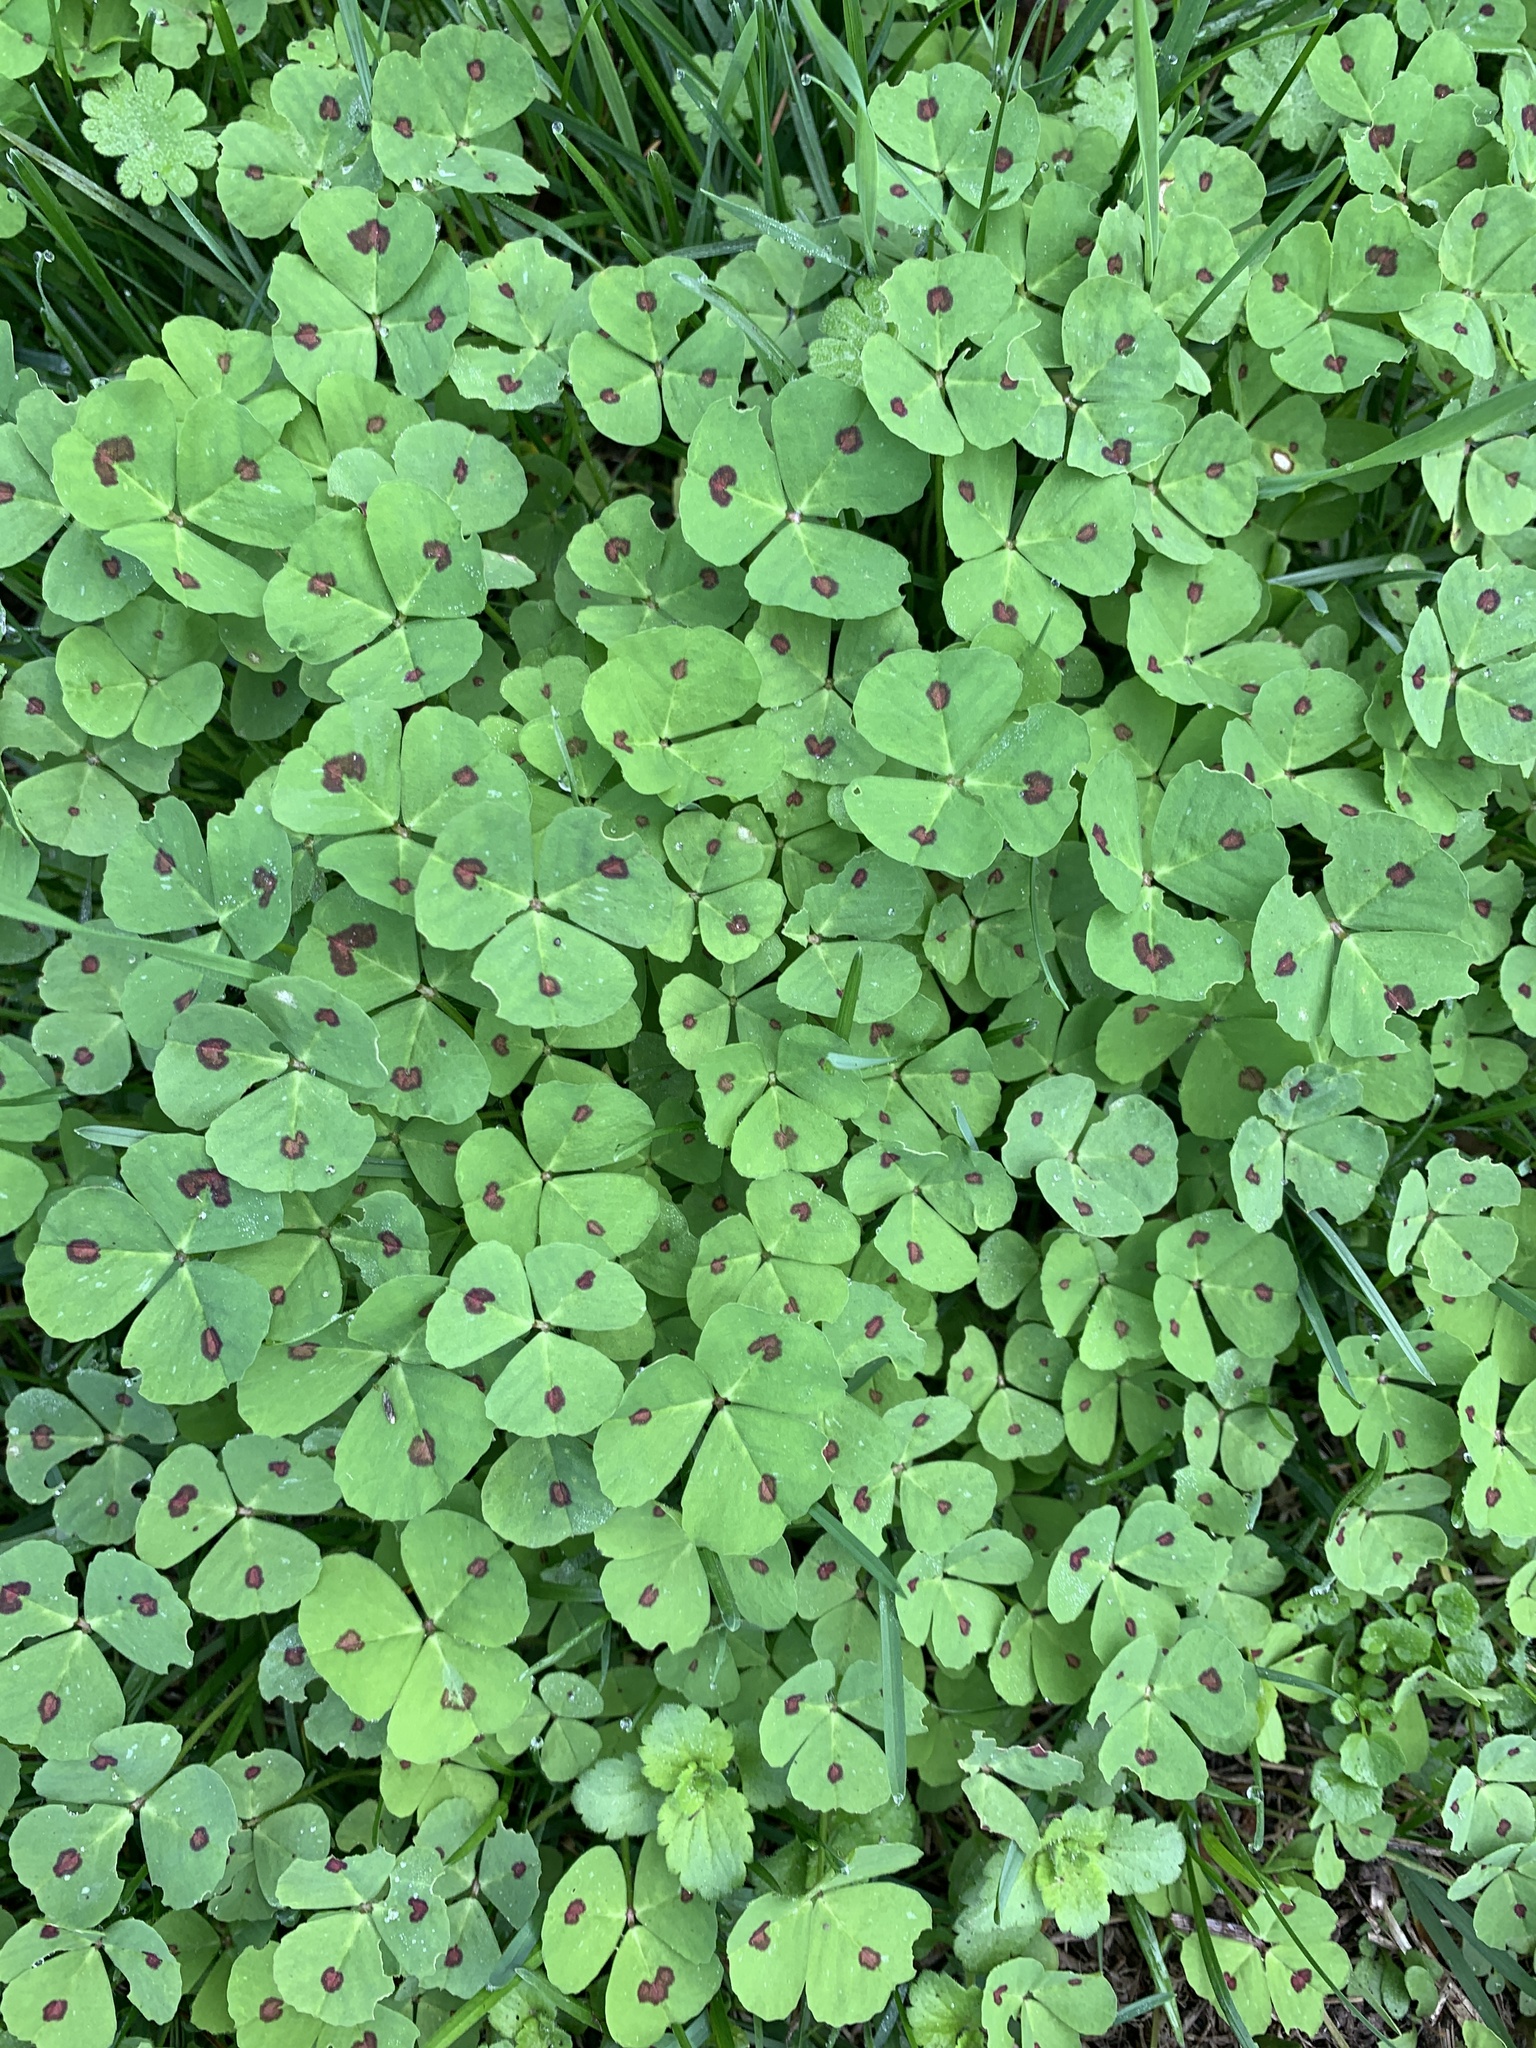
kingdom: Plantae
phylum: Tracheophyta
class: Magnoliopsida
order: Fabales
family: Fabaceae
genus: Medicago
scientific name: Medicago arabica
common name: Spotted medick
